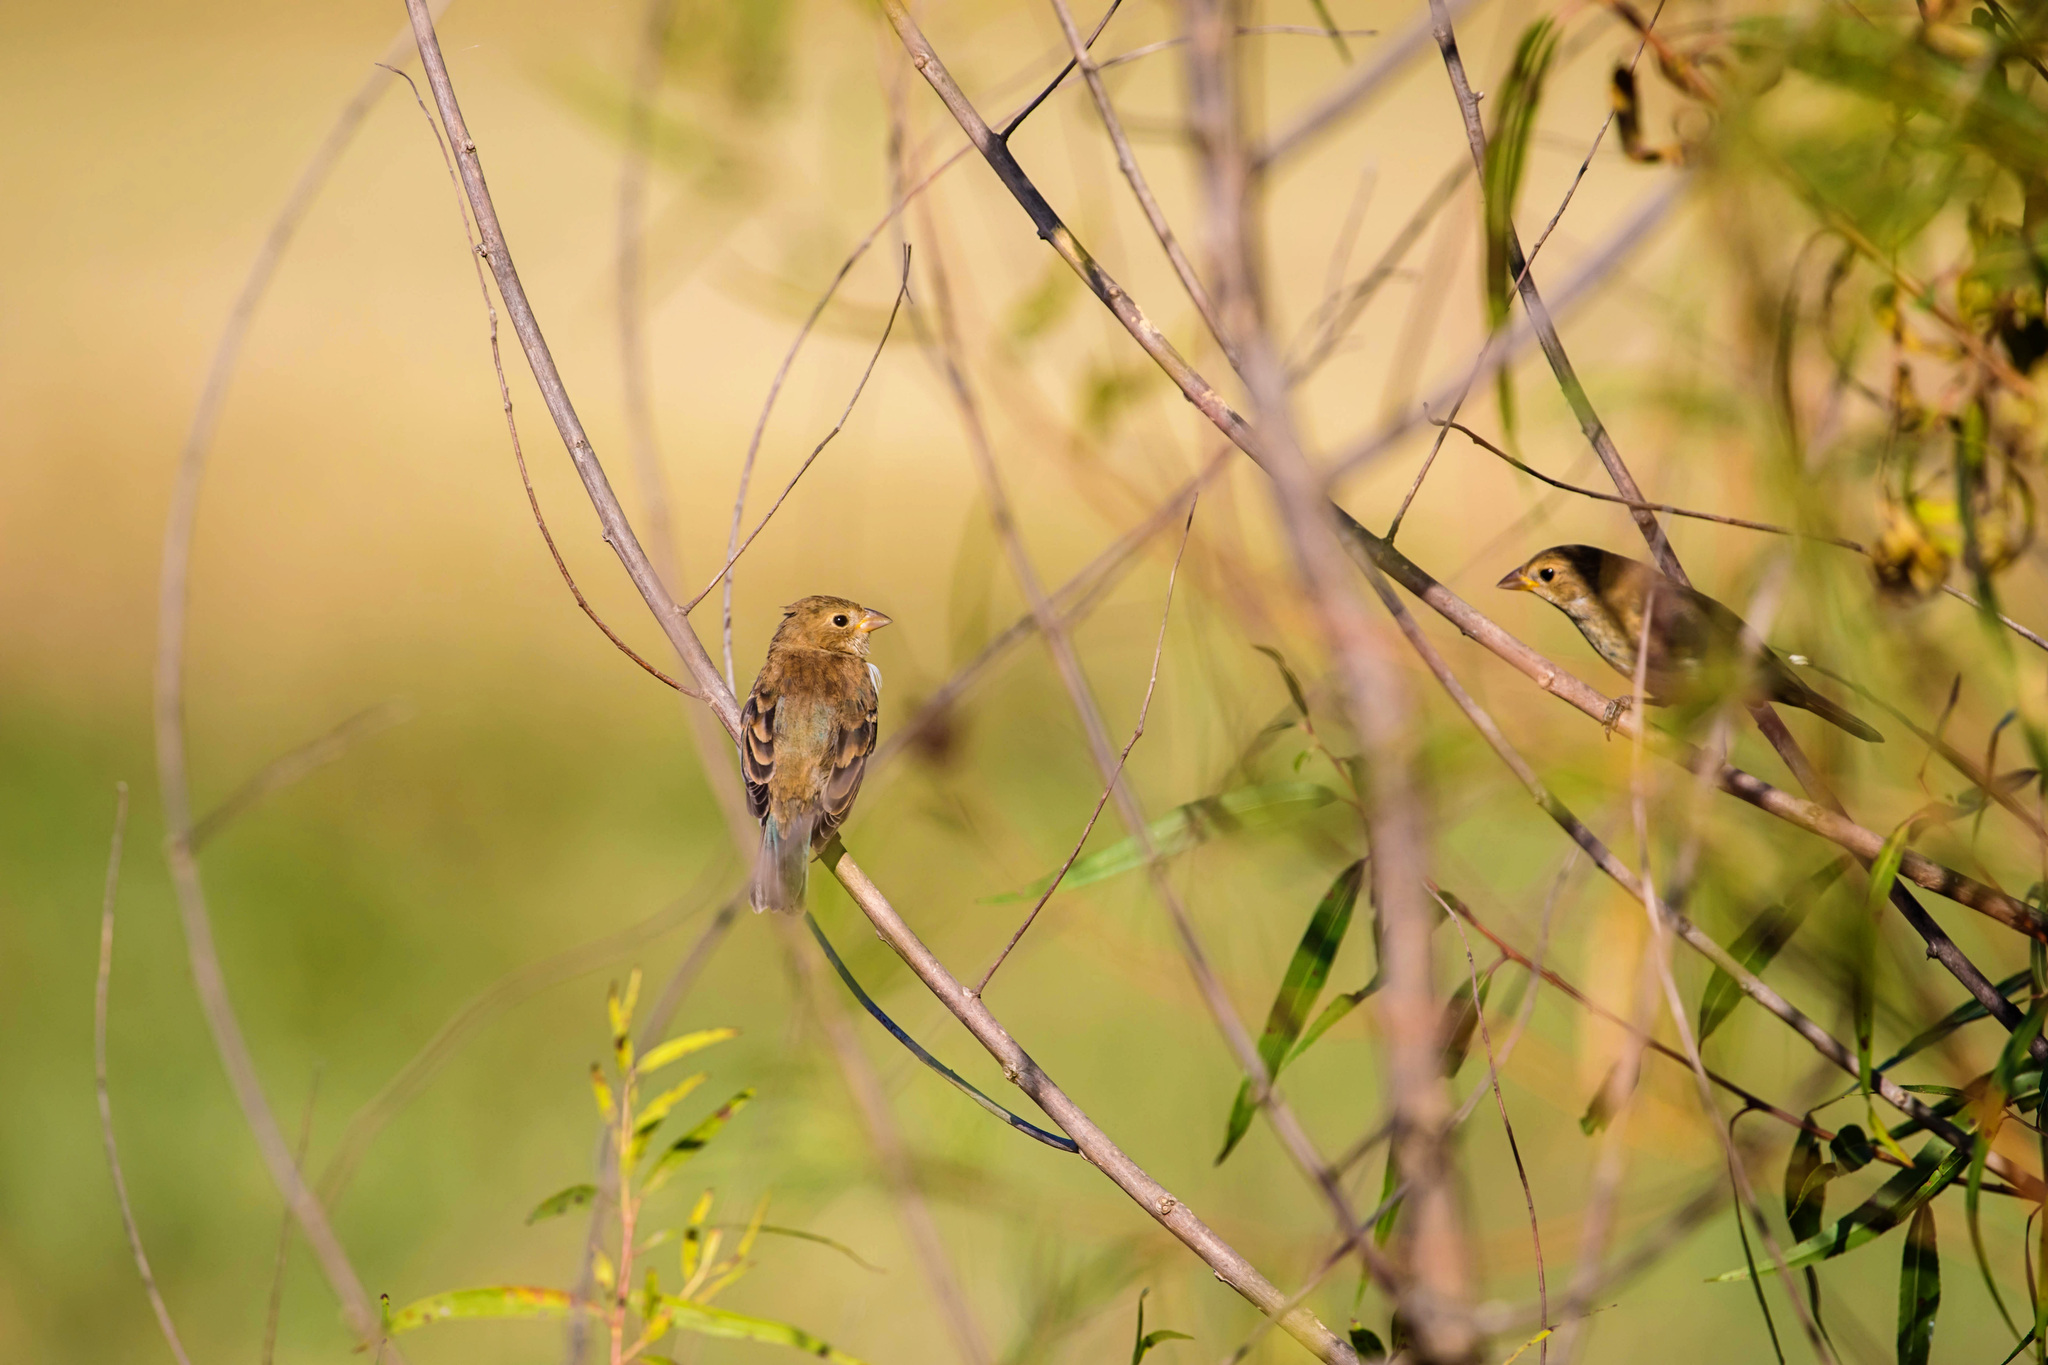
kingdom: Animalia
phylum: Chordata
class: Aves
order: Passeriformes
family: Cardinalidae
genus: Passerina
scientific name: Passerina cyanea
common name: Indigo bunting
